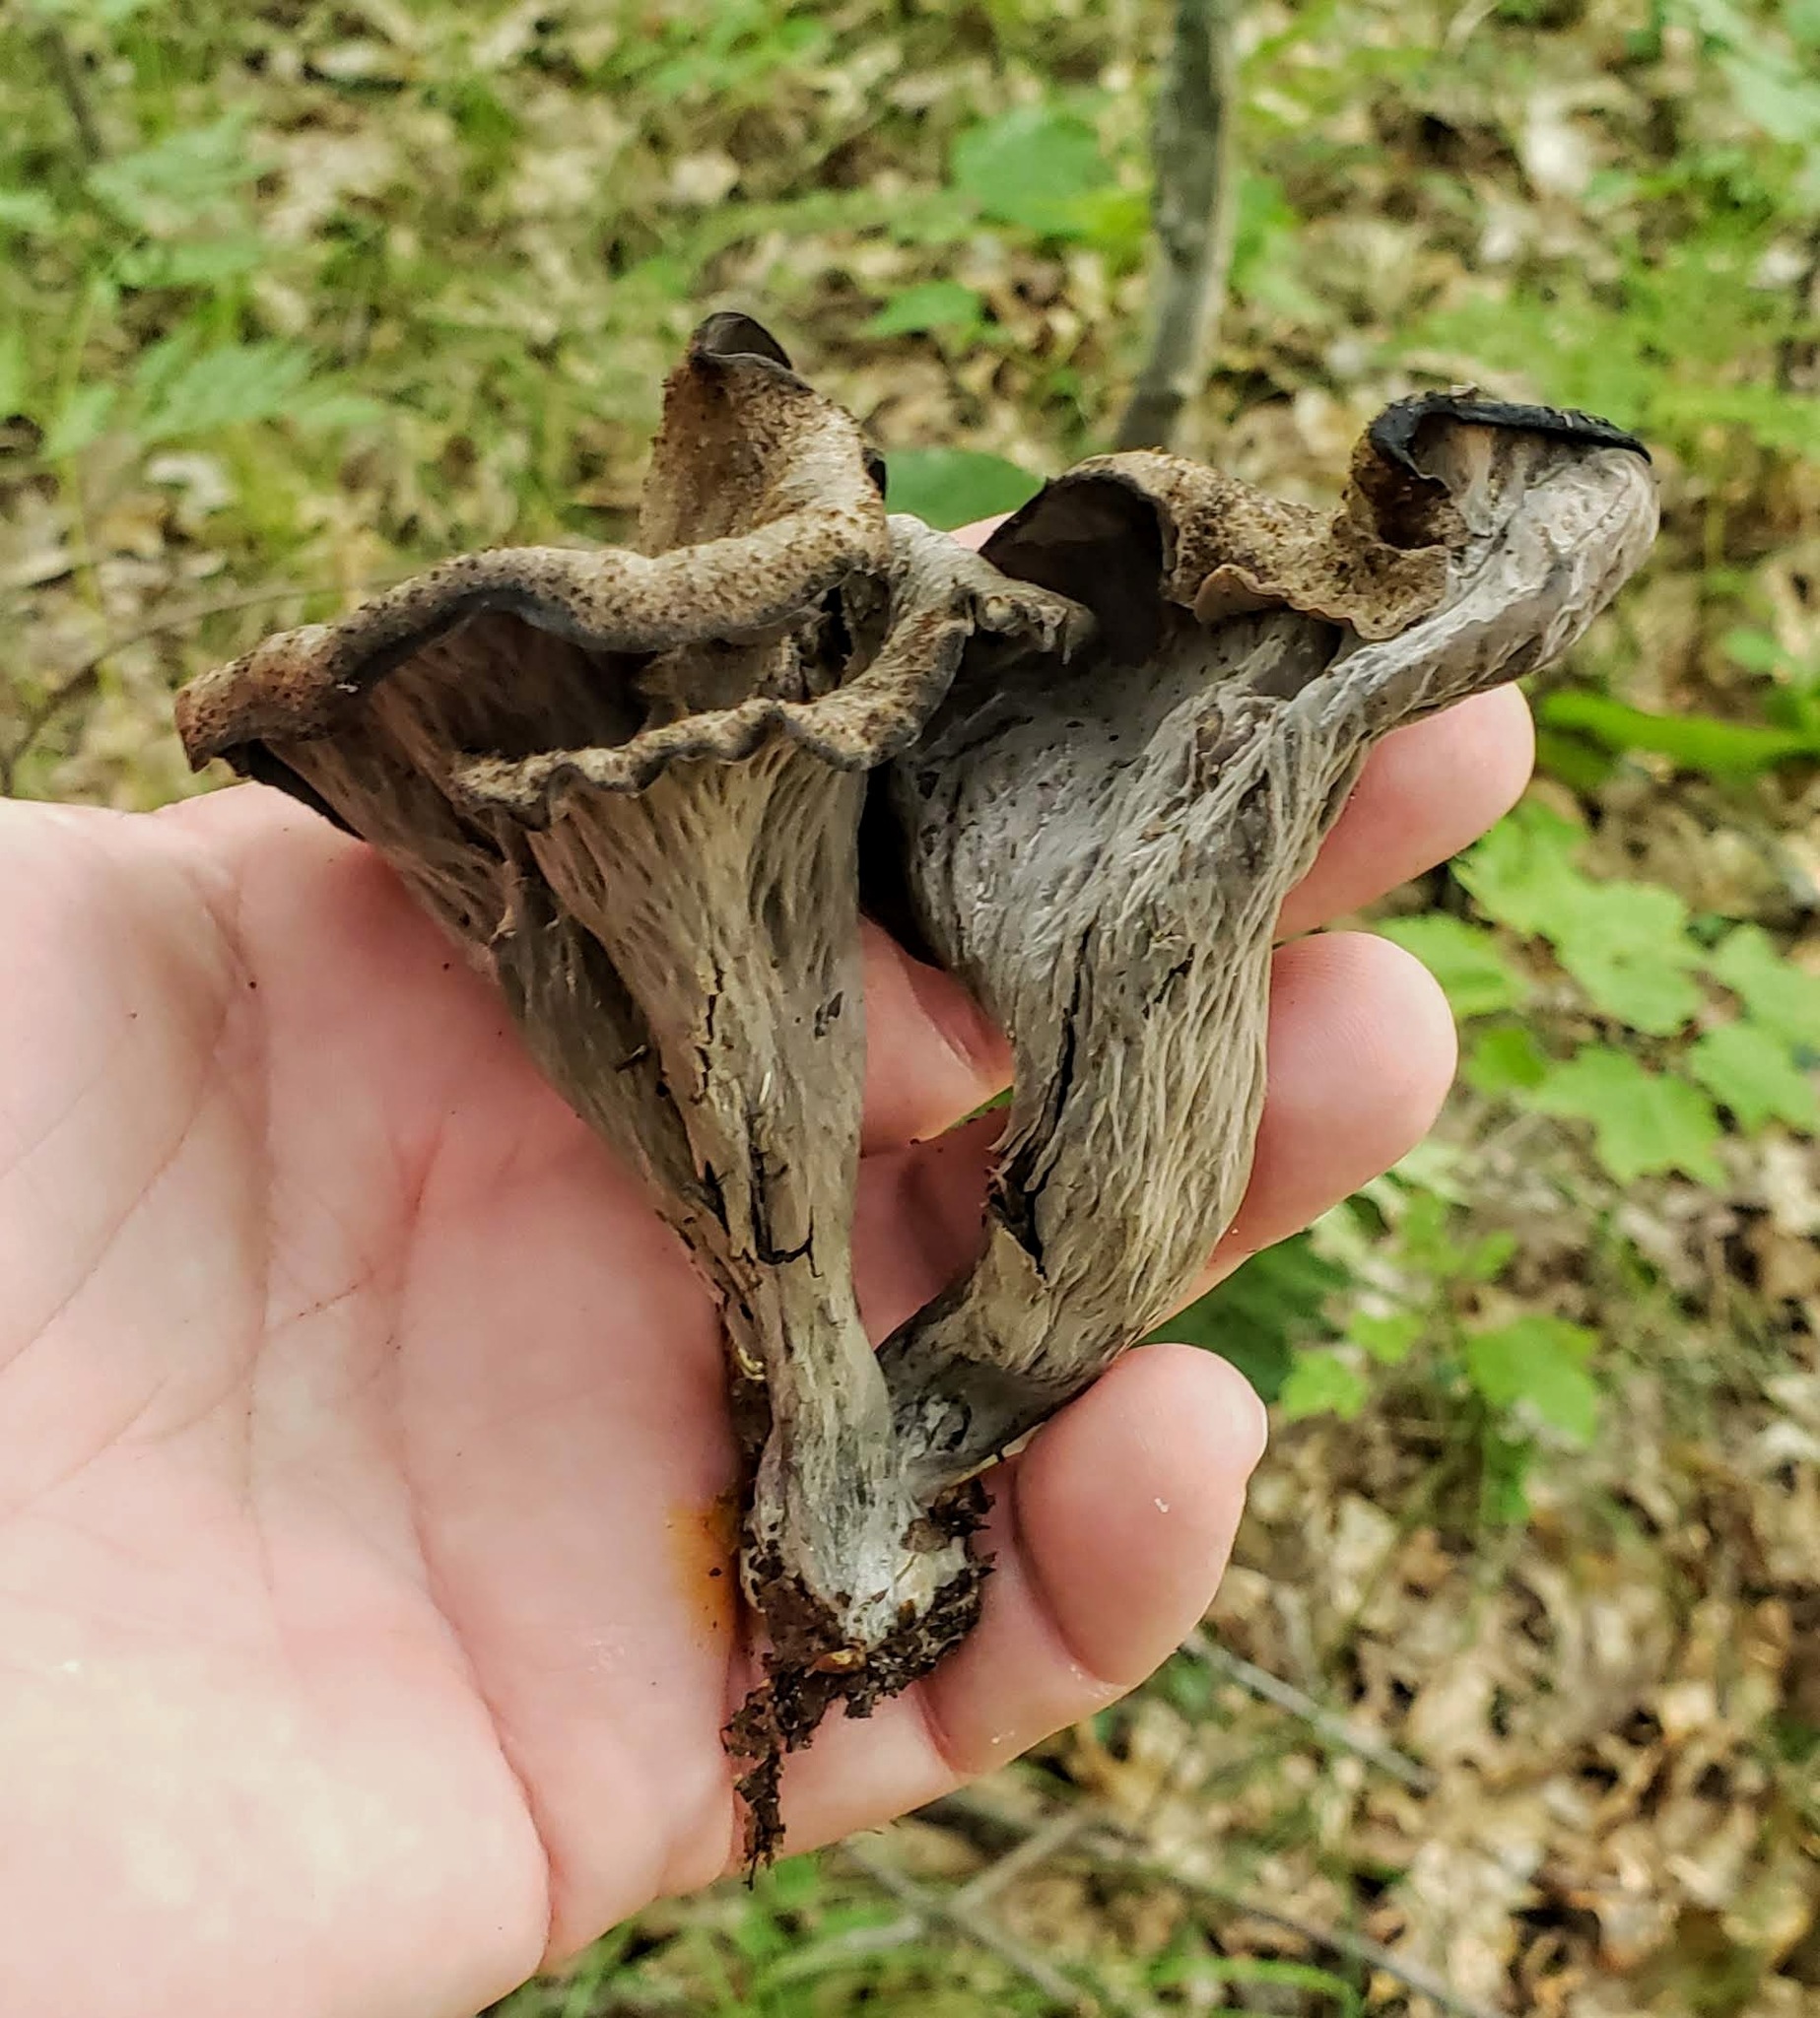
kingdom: Fungi
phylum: Basidiomycota
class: Agaricomycetes
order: Cantharellales
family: Hydnaceae
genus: Craterellus
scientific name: Craterellus cornucopioides
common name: Horn of plenty
